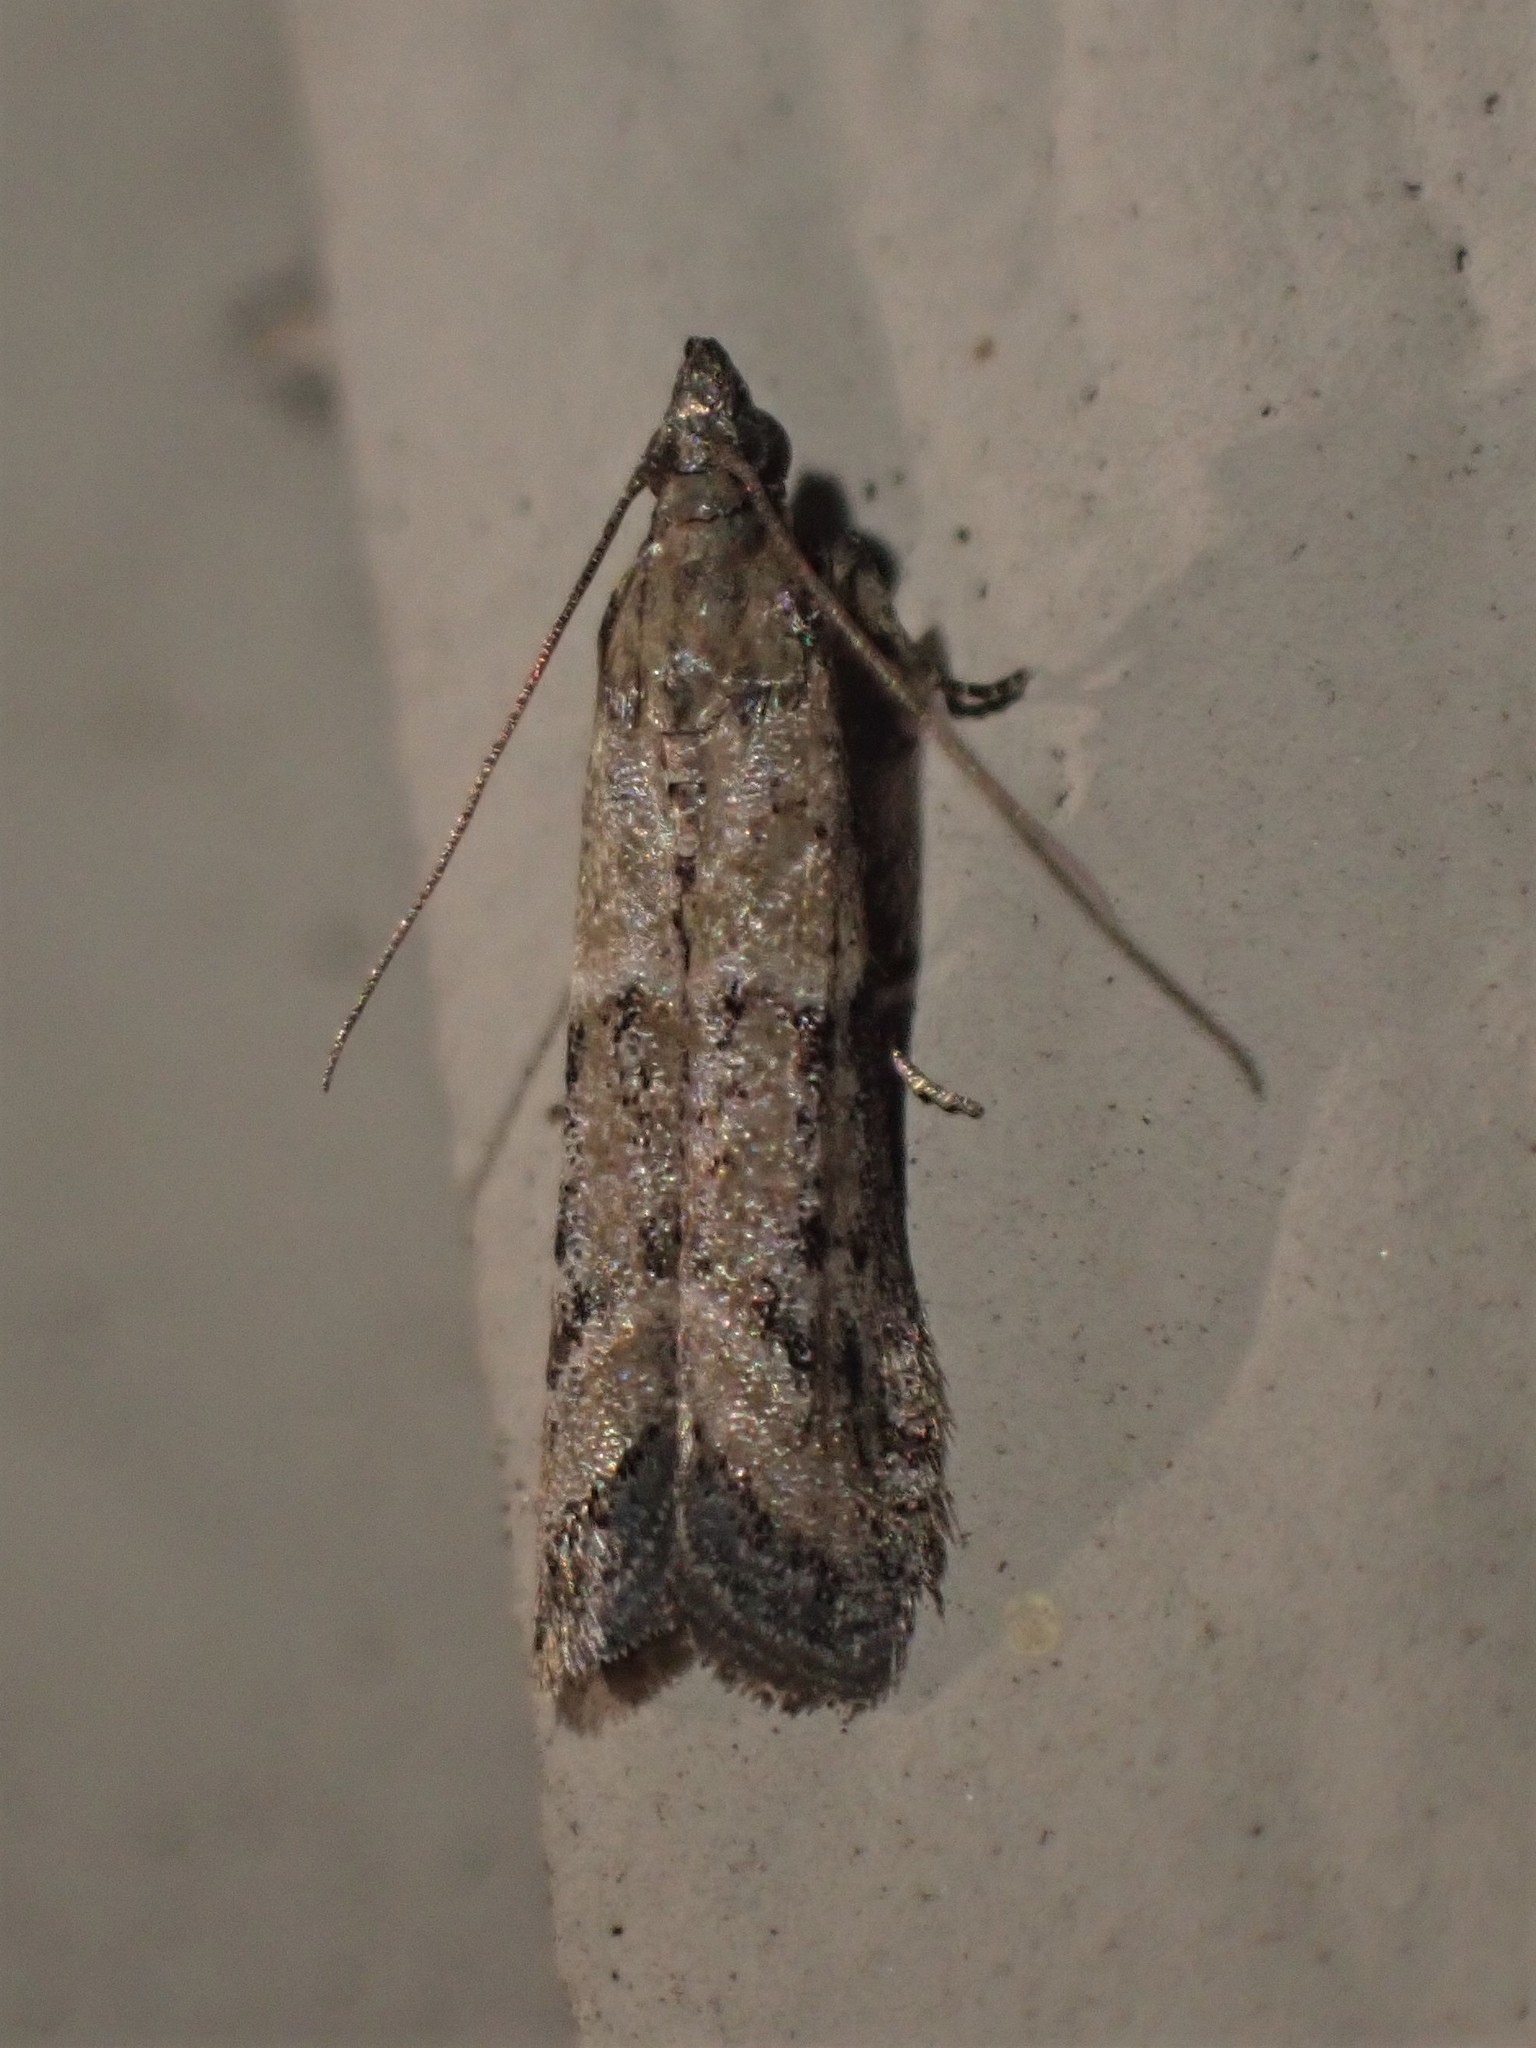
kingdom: Animalia
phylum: Arthropoda
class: Insecta
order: Lepidoptera
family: Pyralidae
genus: Ephestiodes
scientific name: Ephestiodes gilvescentella
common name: Moth
